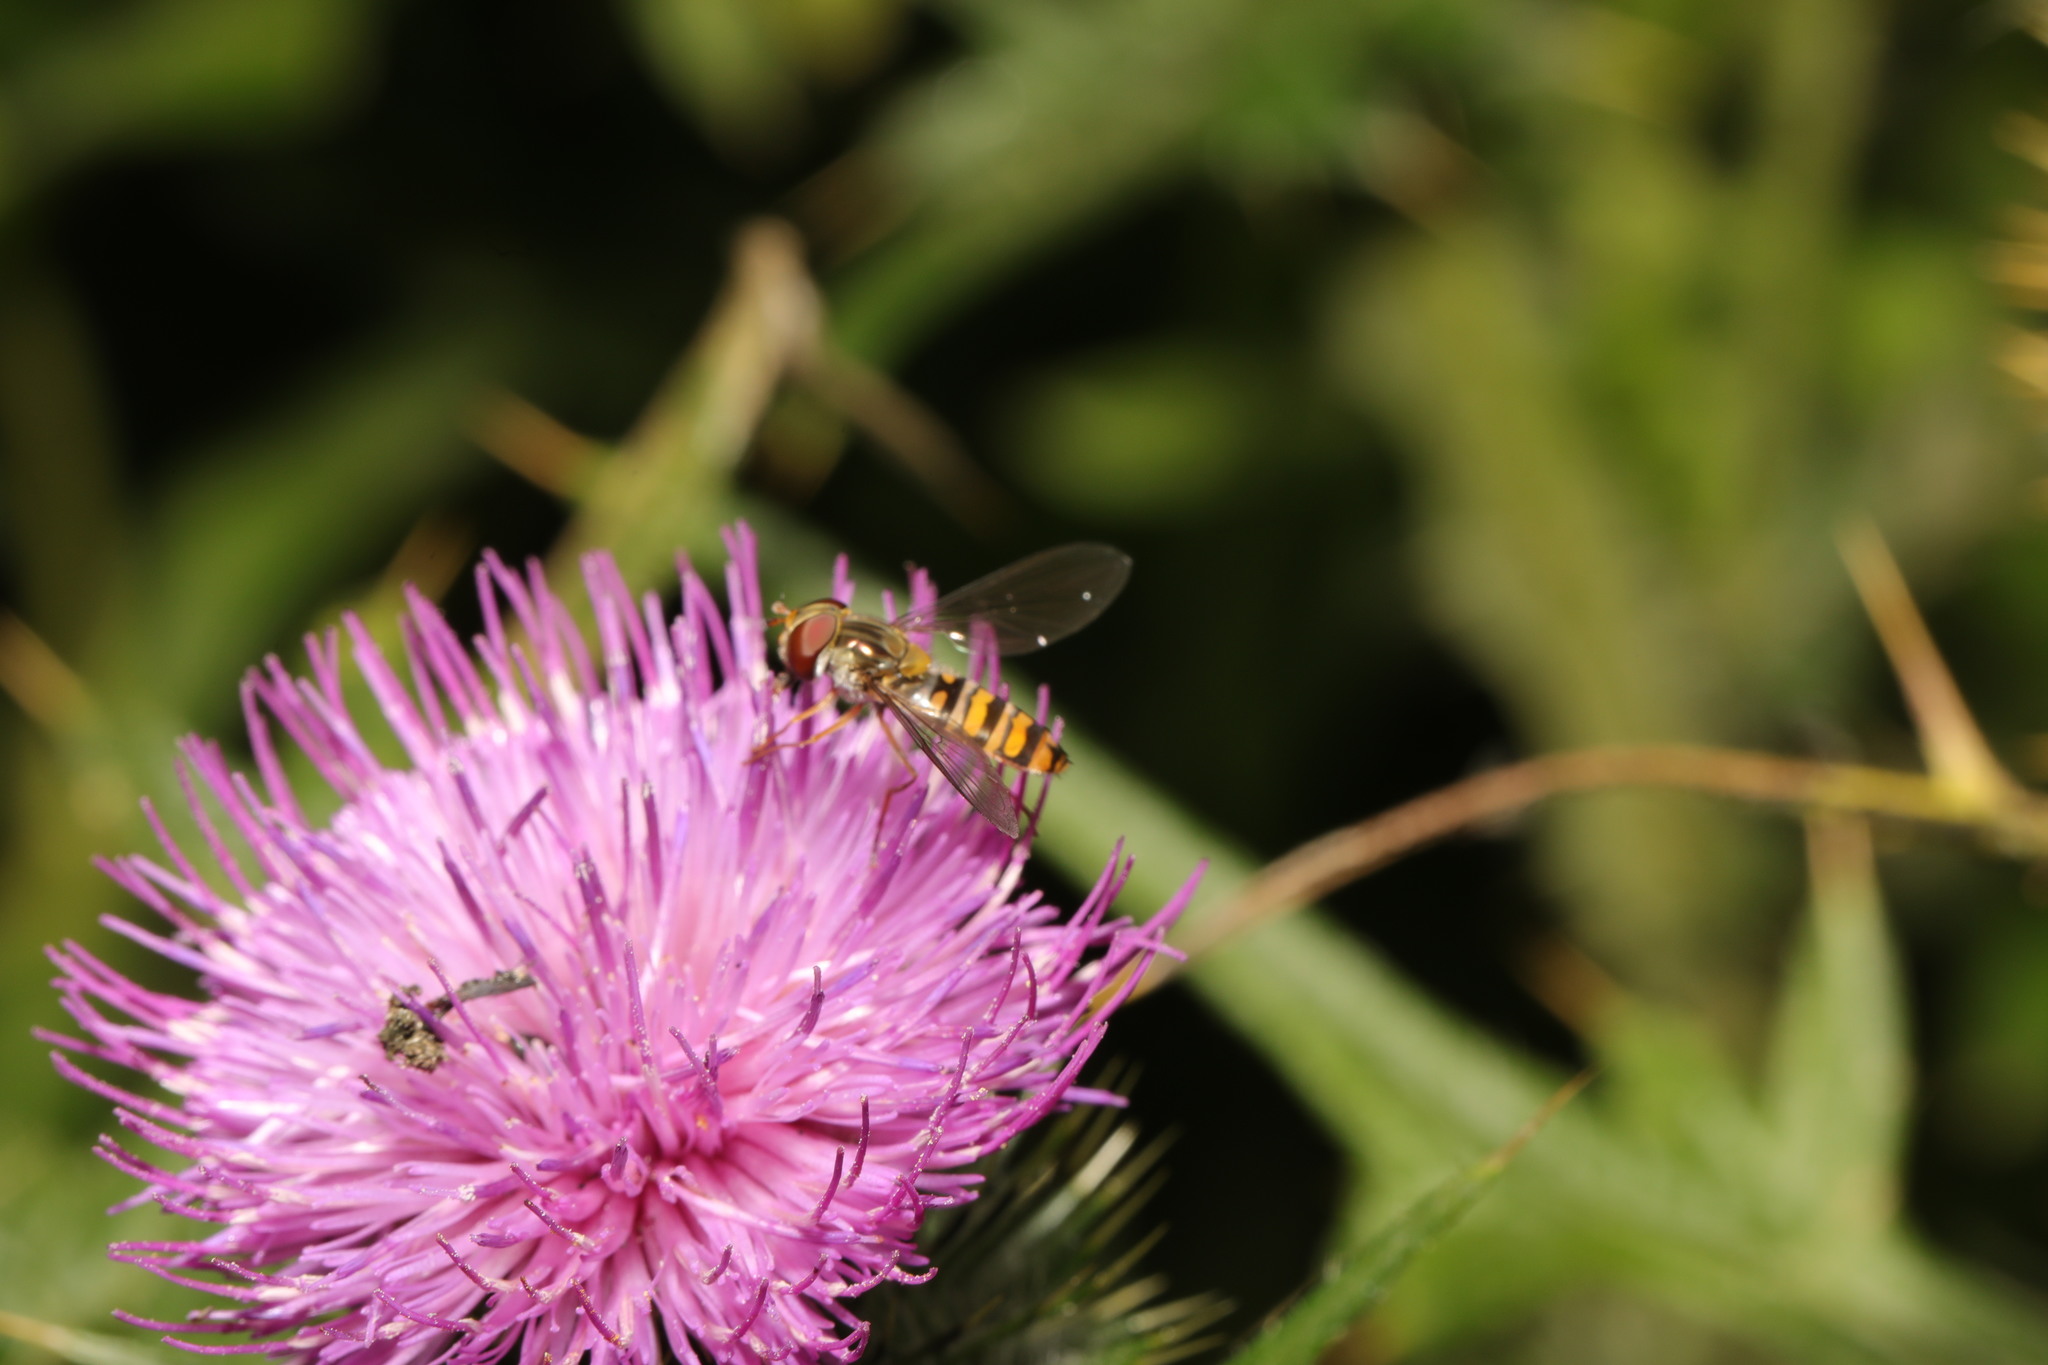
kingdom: Animalia
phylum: Arthropoda
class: Insecta
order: Diptera
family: Syrphidae
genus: Episyrphus
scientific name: Episyrphus balteatus
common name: Marmalade hoverfly
